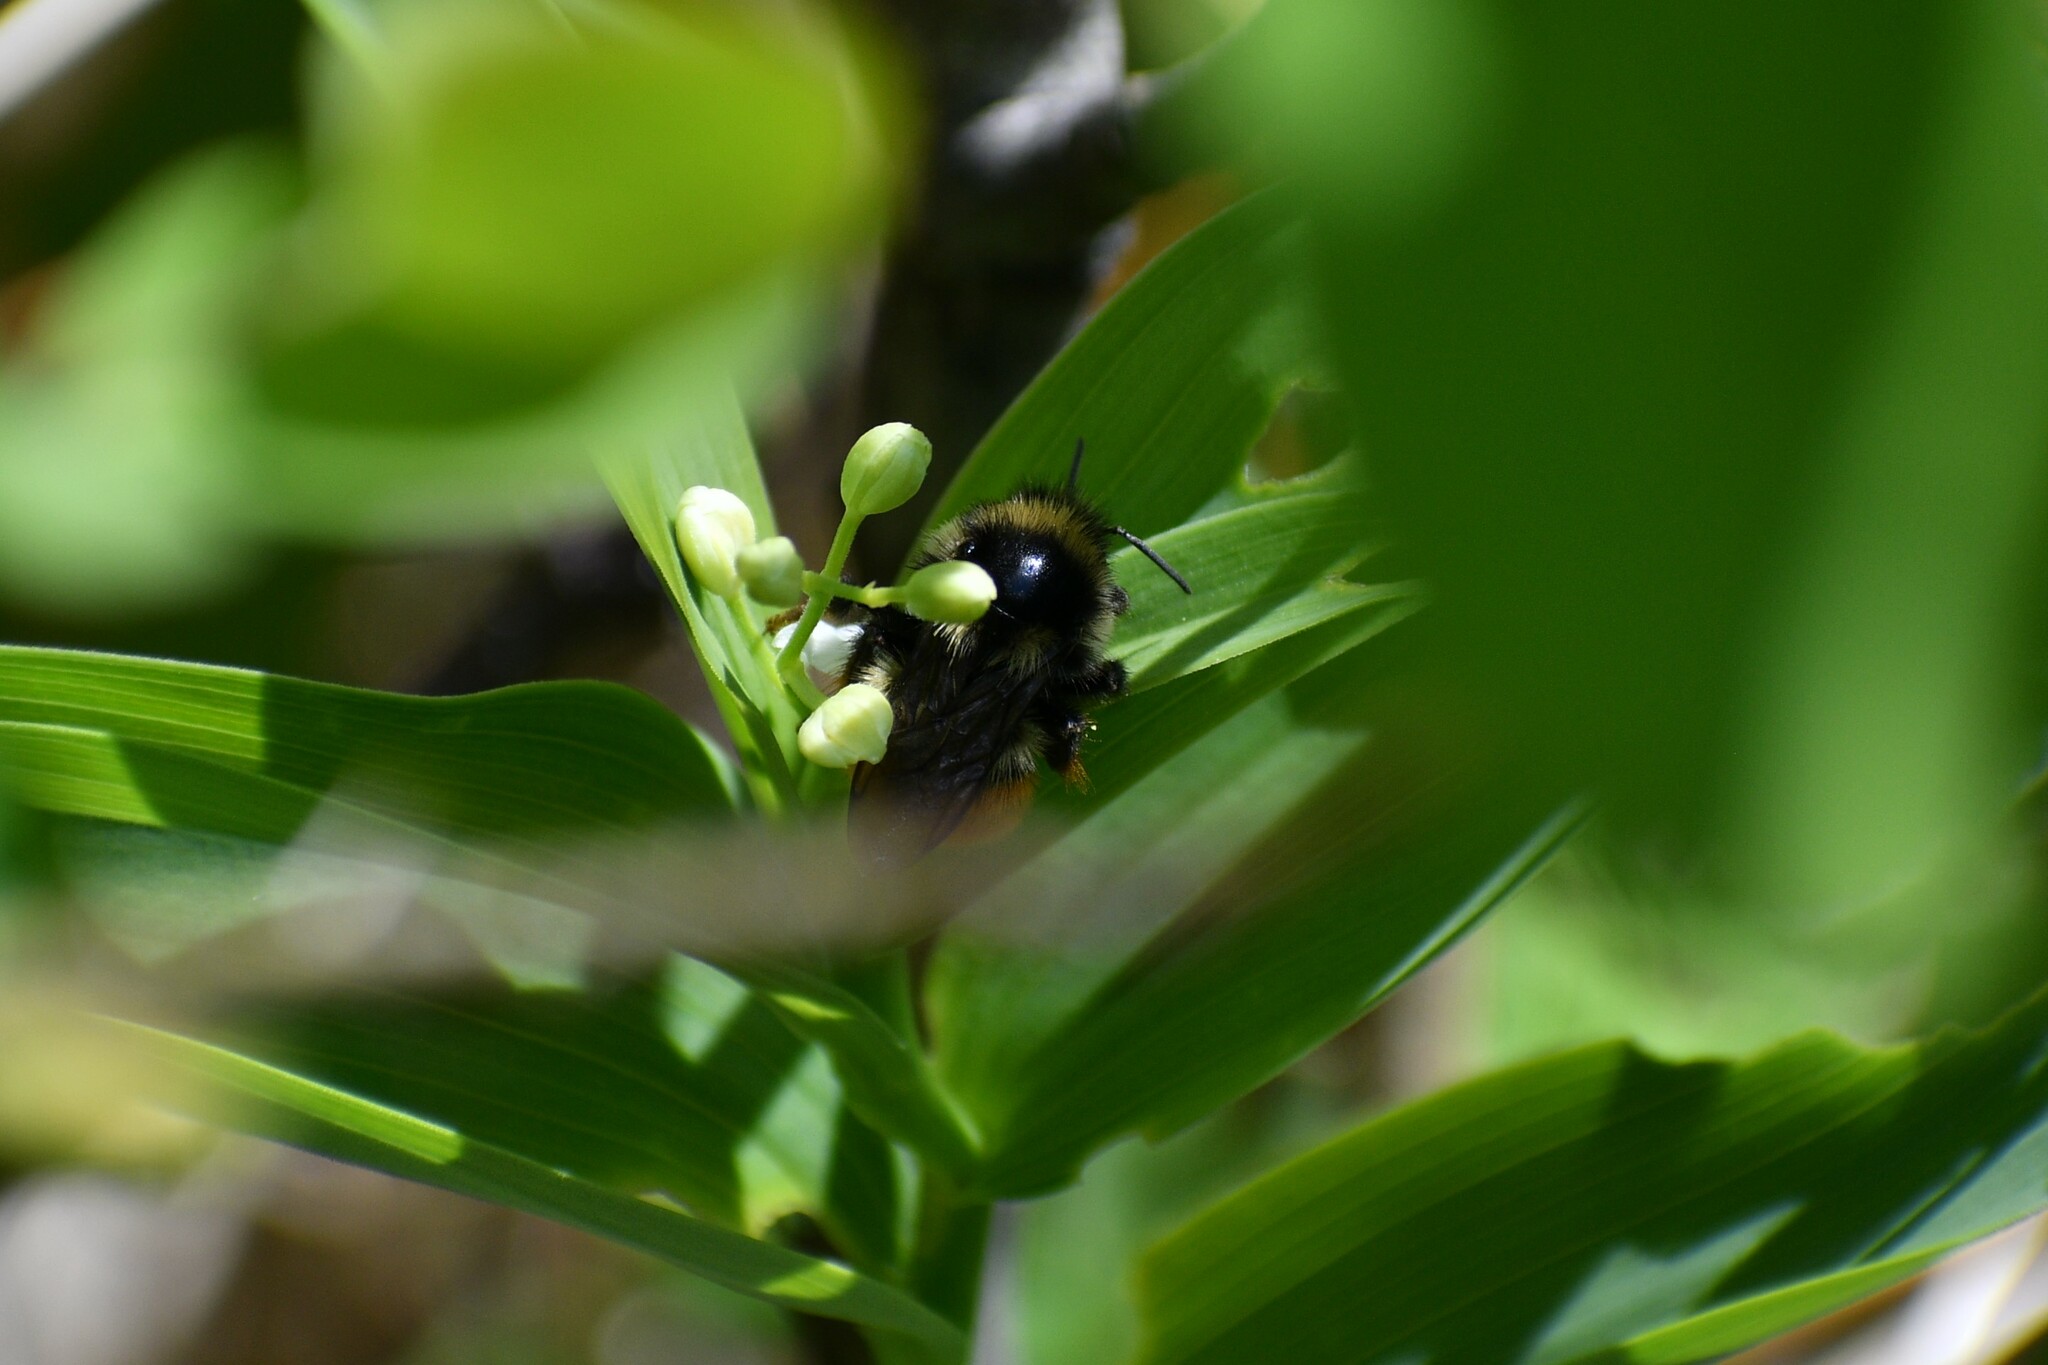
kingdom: Animalia
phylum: Arthropoda
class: Insecta
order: Hymenoptera
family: Apidae
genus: Bombus
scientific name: Bombus vancouverensis
